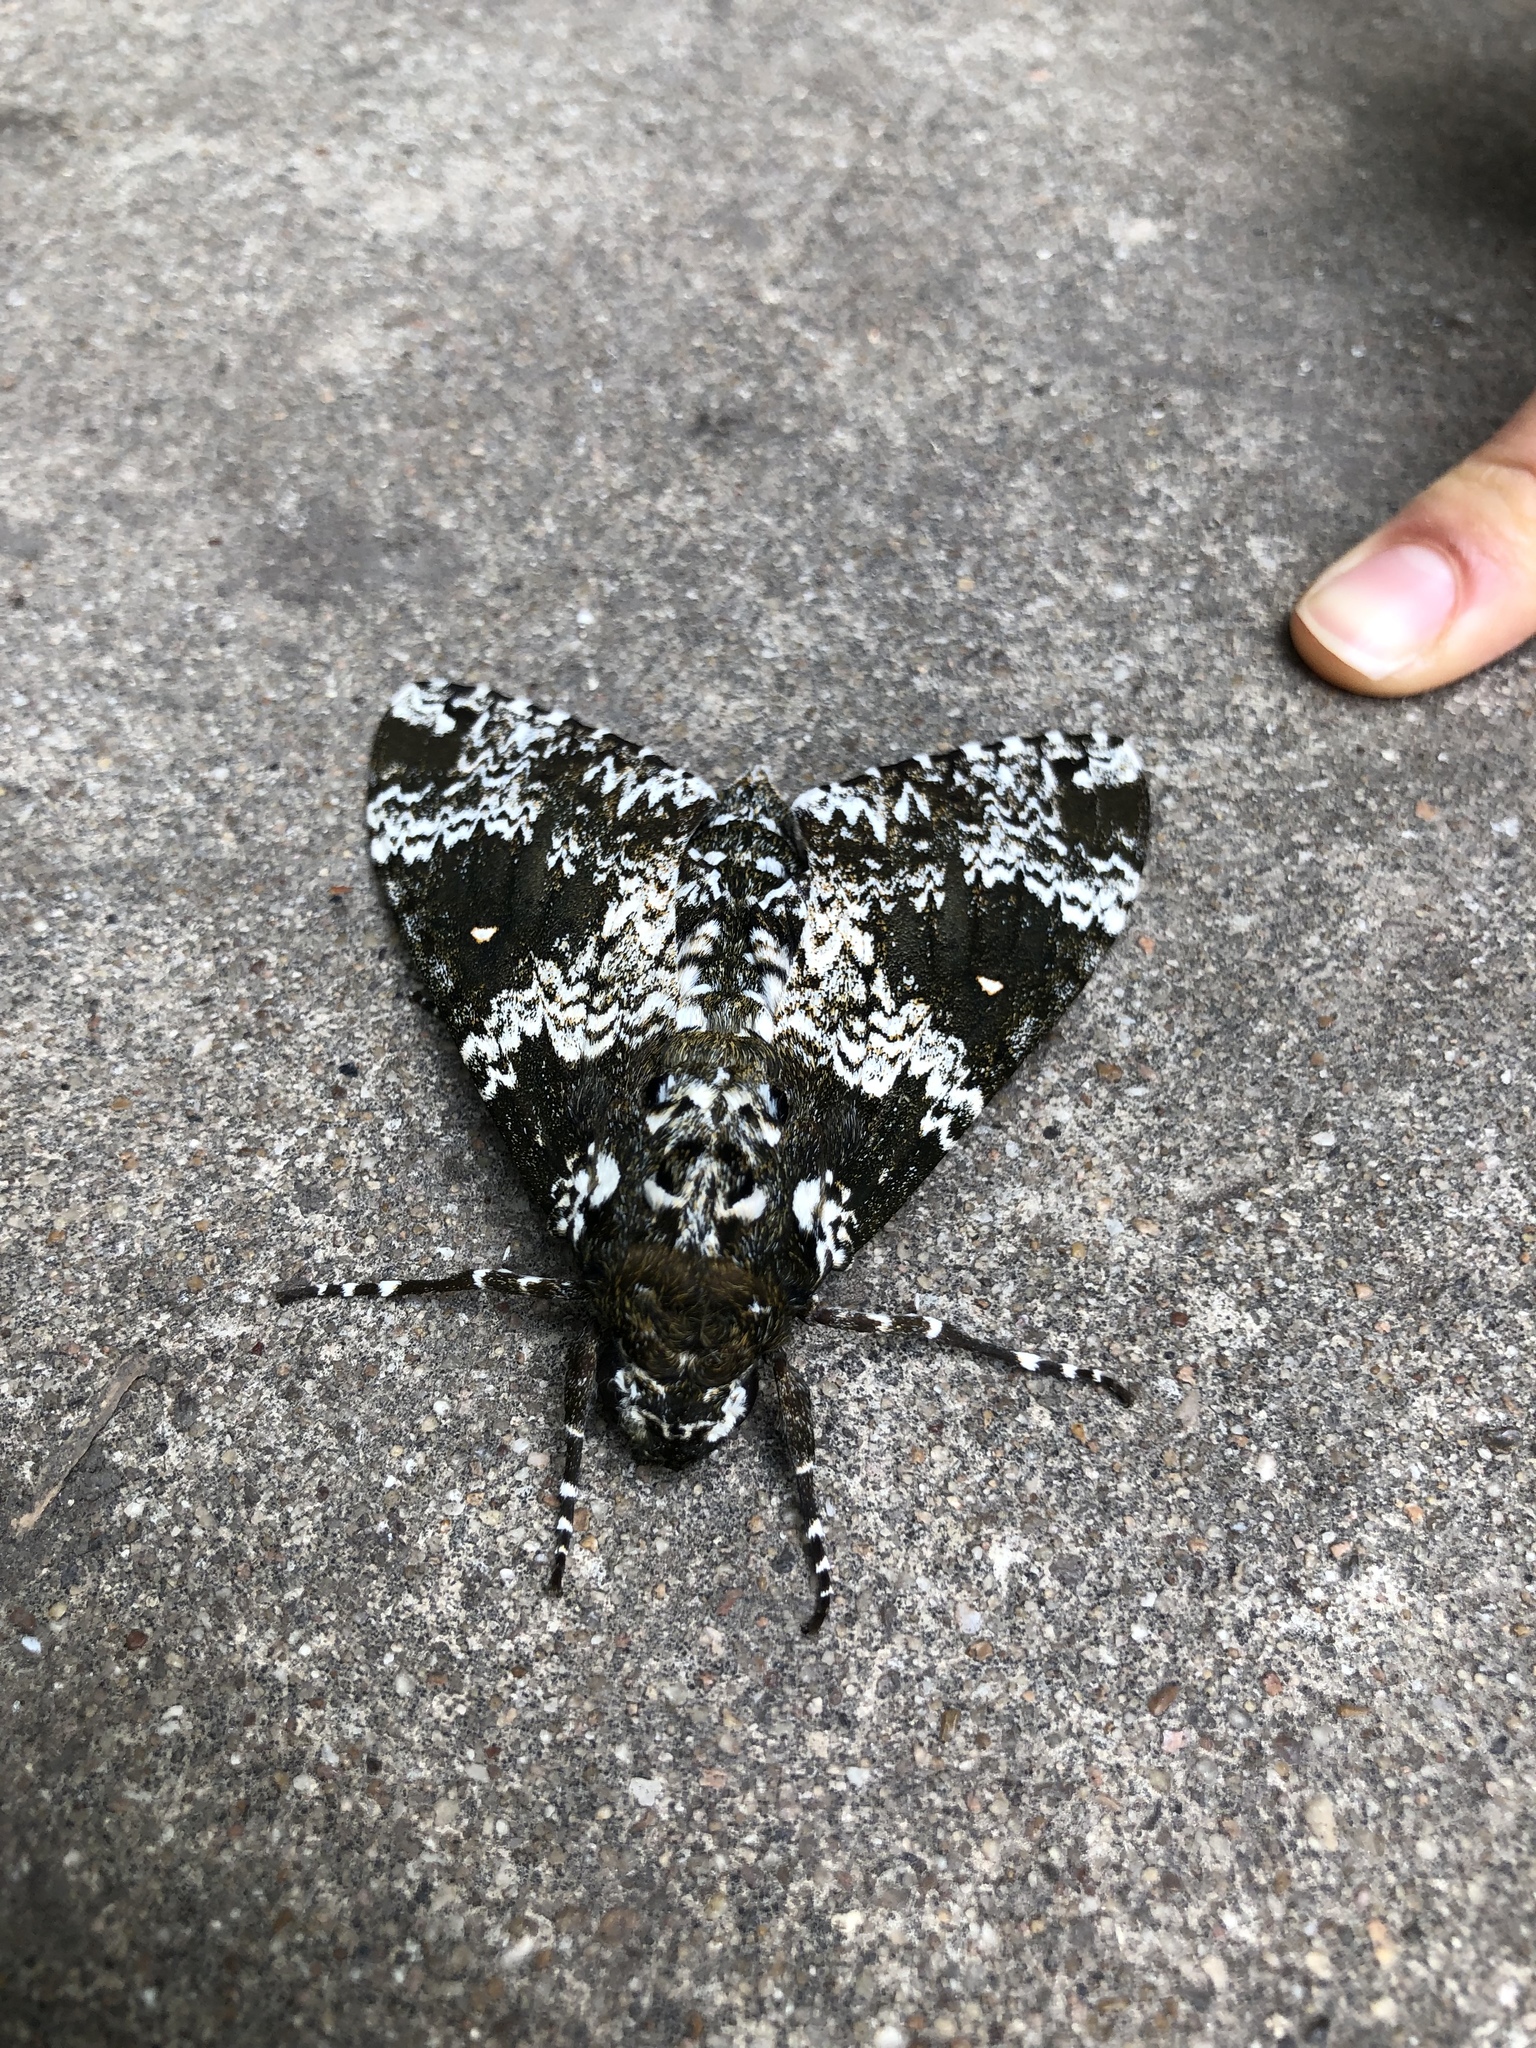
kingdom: Animalia
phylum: Arthropoda
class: Insecta
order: Lepidoptera
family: Sphingidae
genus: Manduca
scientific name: Manduca rustica
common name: Rustic sphinx
